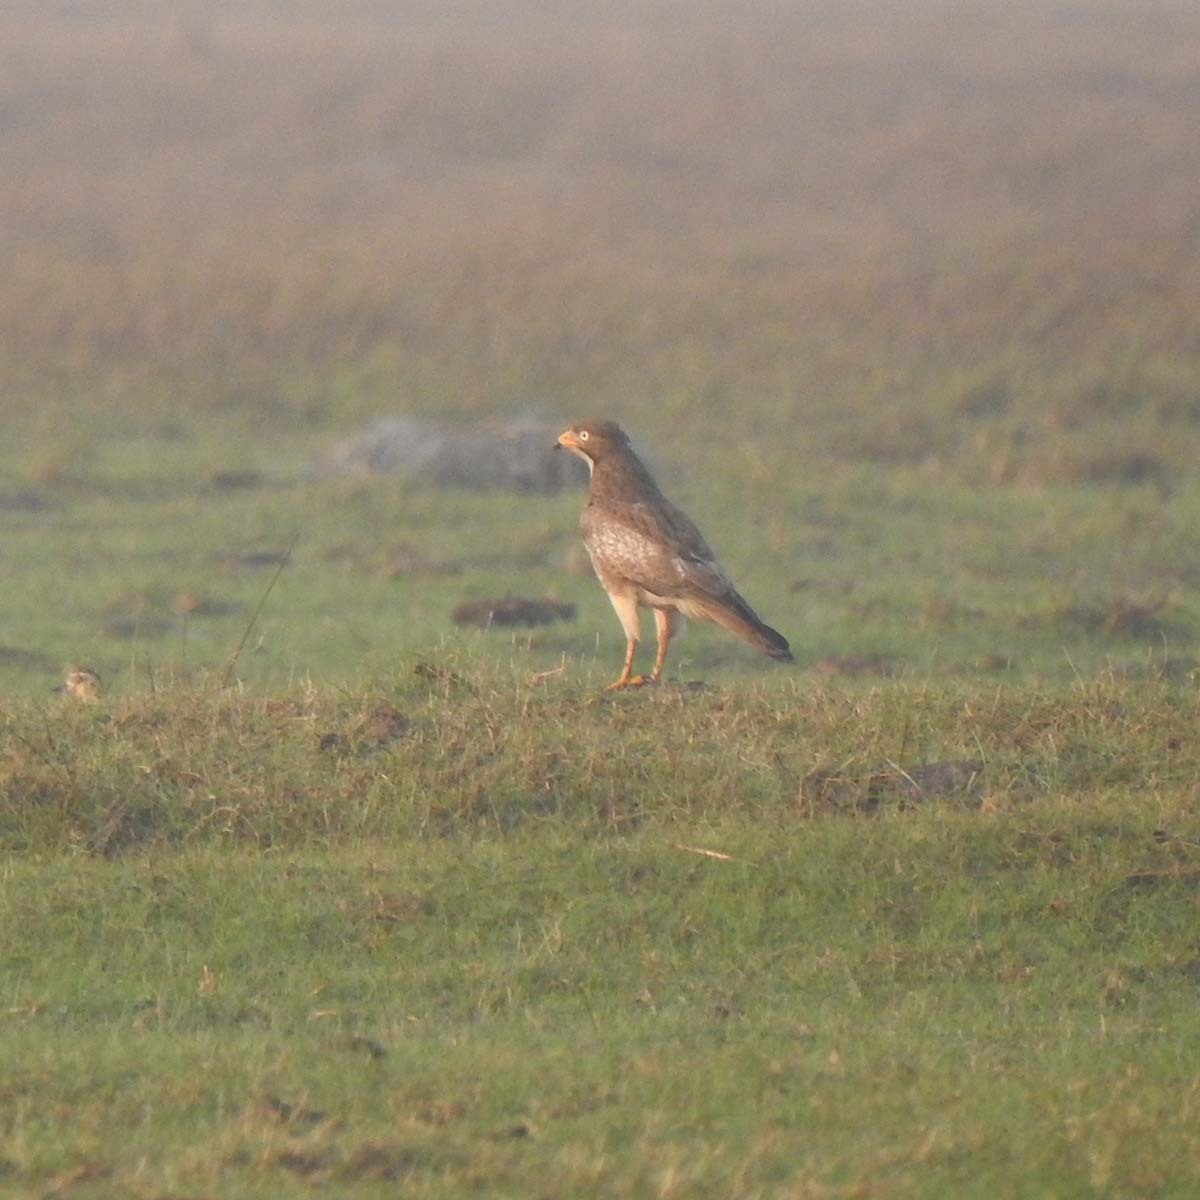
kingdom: Animalia
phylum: Chordata
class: Aves
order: Accipitriformes
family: Accipitridae
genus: Butastur
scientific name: Butastur teesa
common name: White-eyed buzzard
